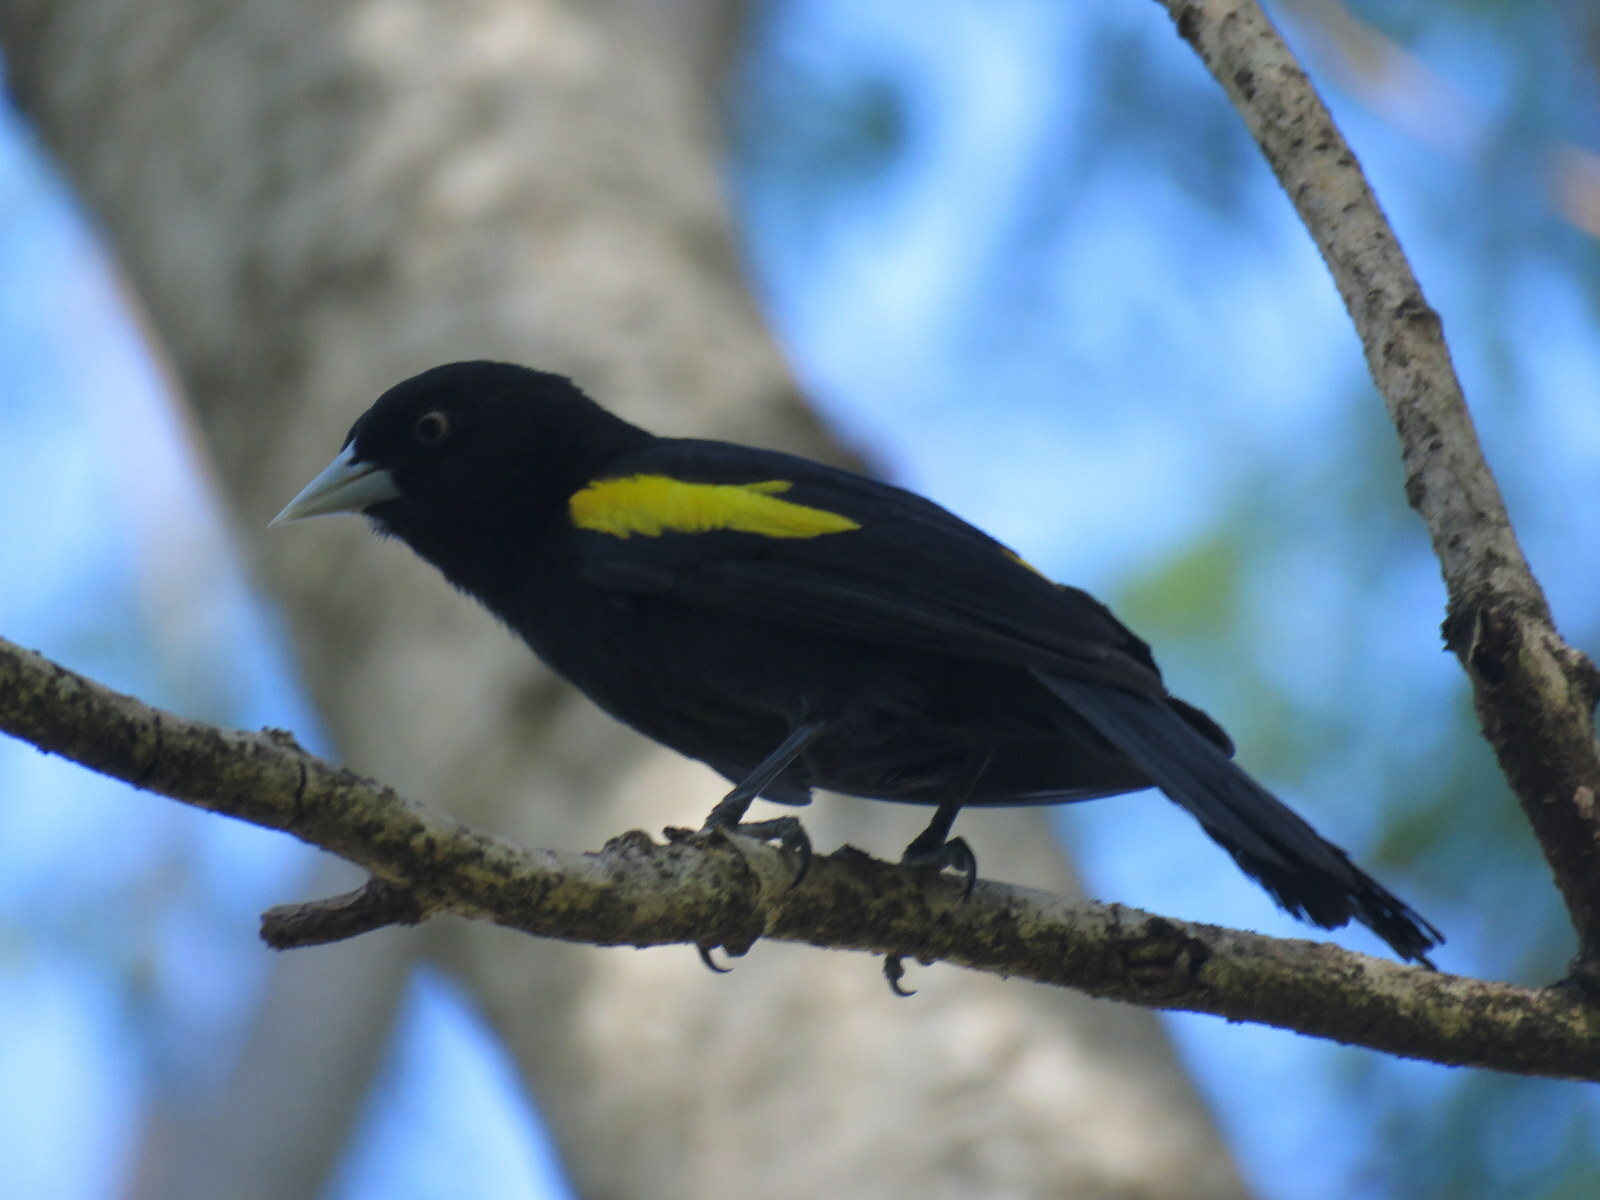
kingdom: Animalia
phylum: Chordata
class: Aves
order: Passeriformes
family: Icteridae
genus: Cacicus
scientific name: Cacicus chrysopterus
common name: Golden-winged cacique
